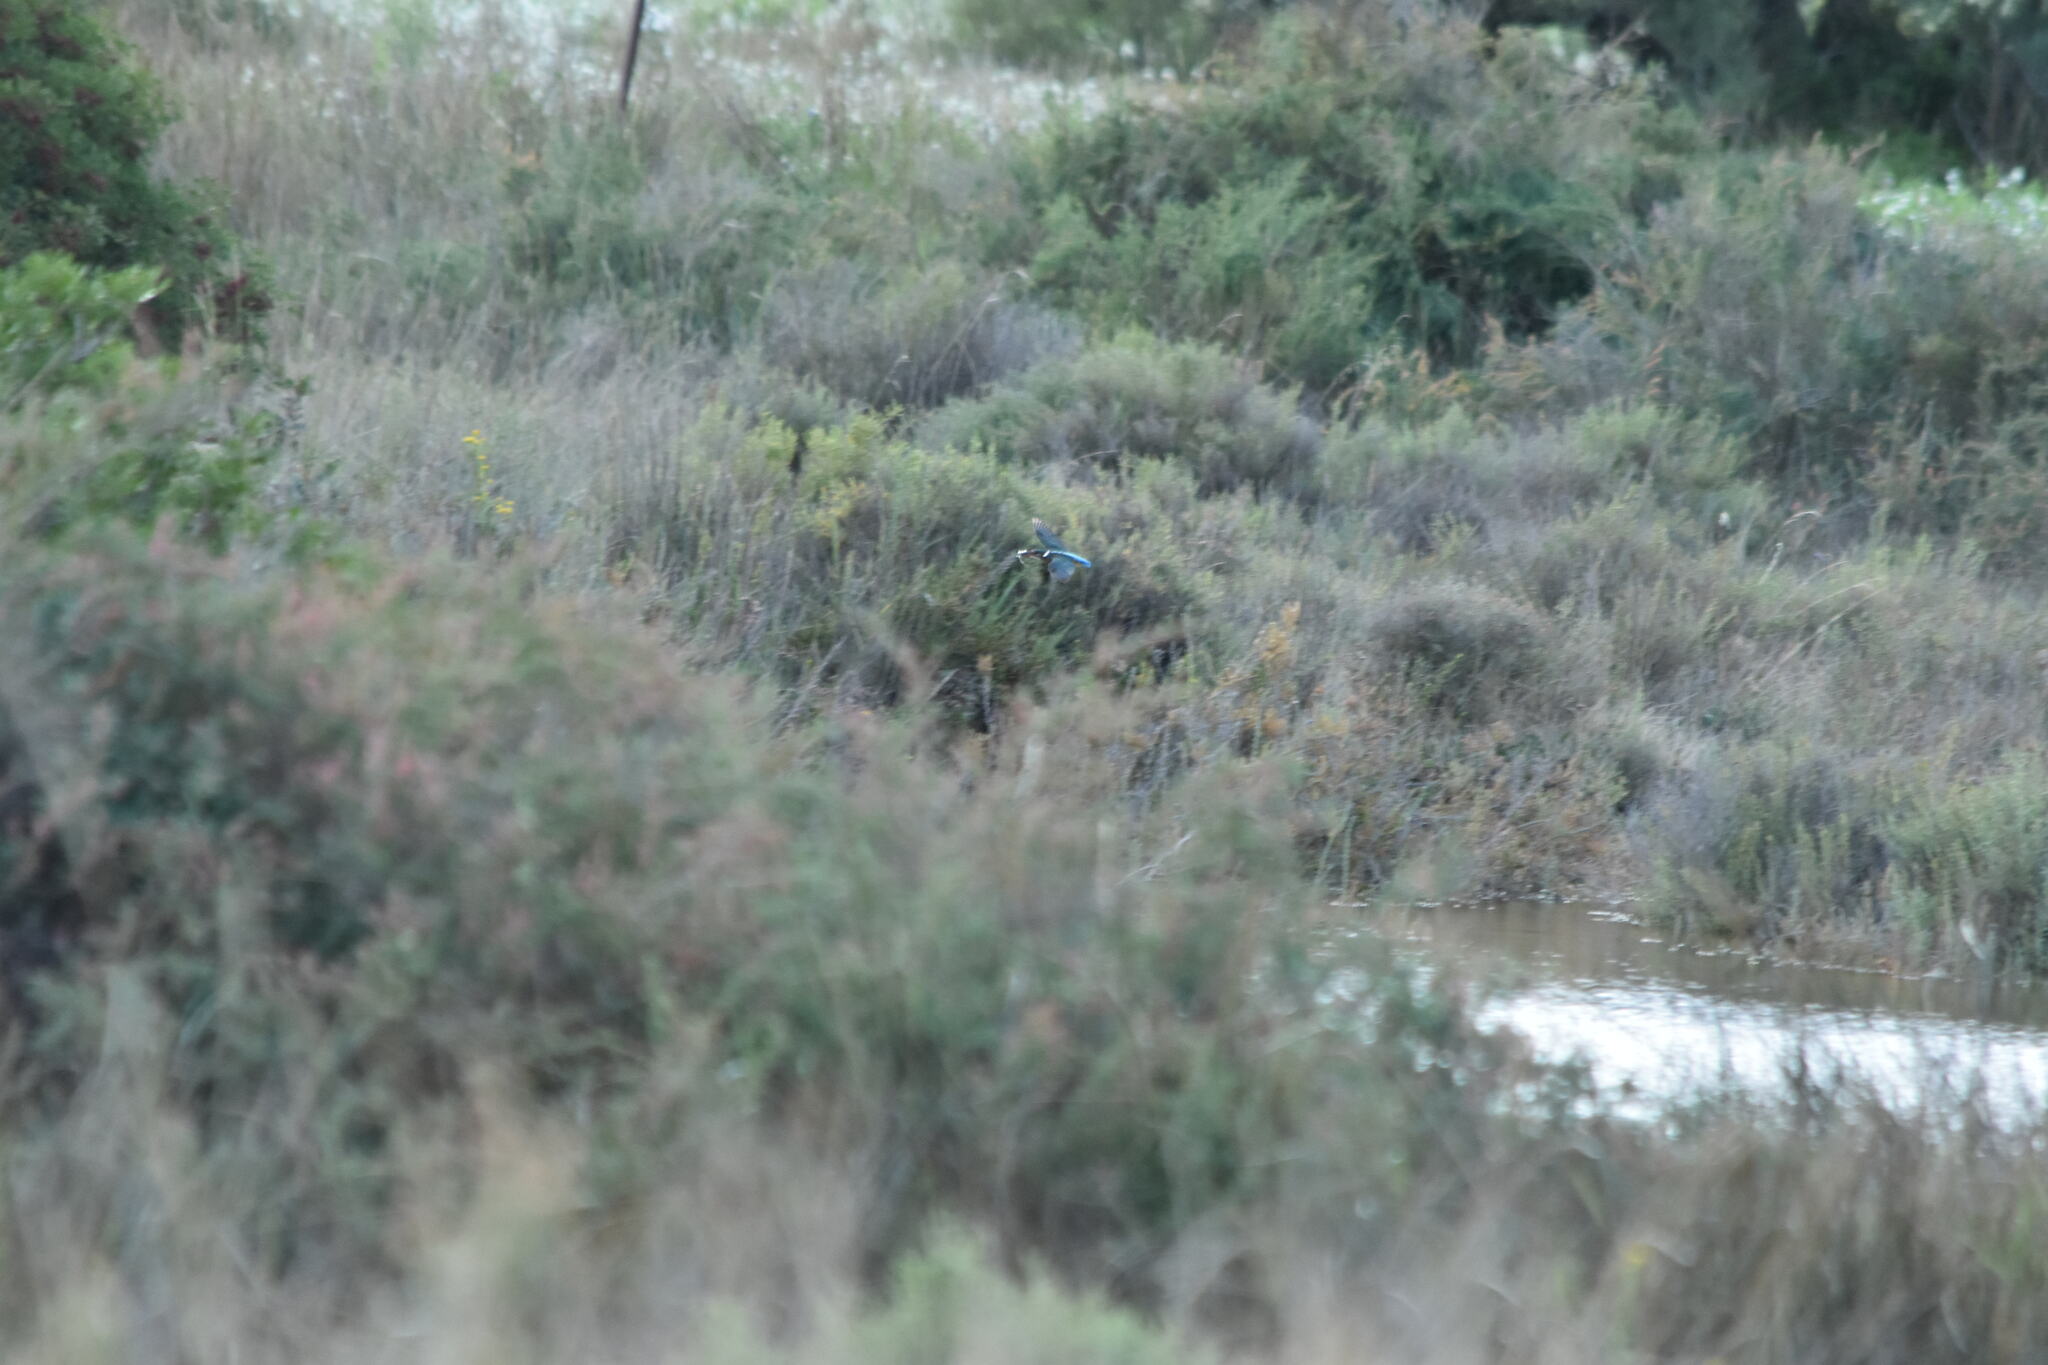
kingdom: Animalia
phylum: Chordata
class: Aves
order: Coraciiformes
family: Alcedinidae
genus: Alcedo
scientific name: Alcedo atthis
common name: Common kingfisher
